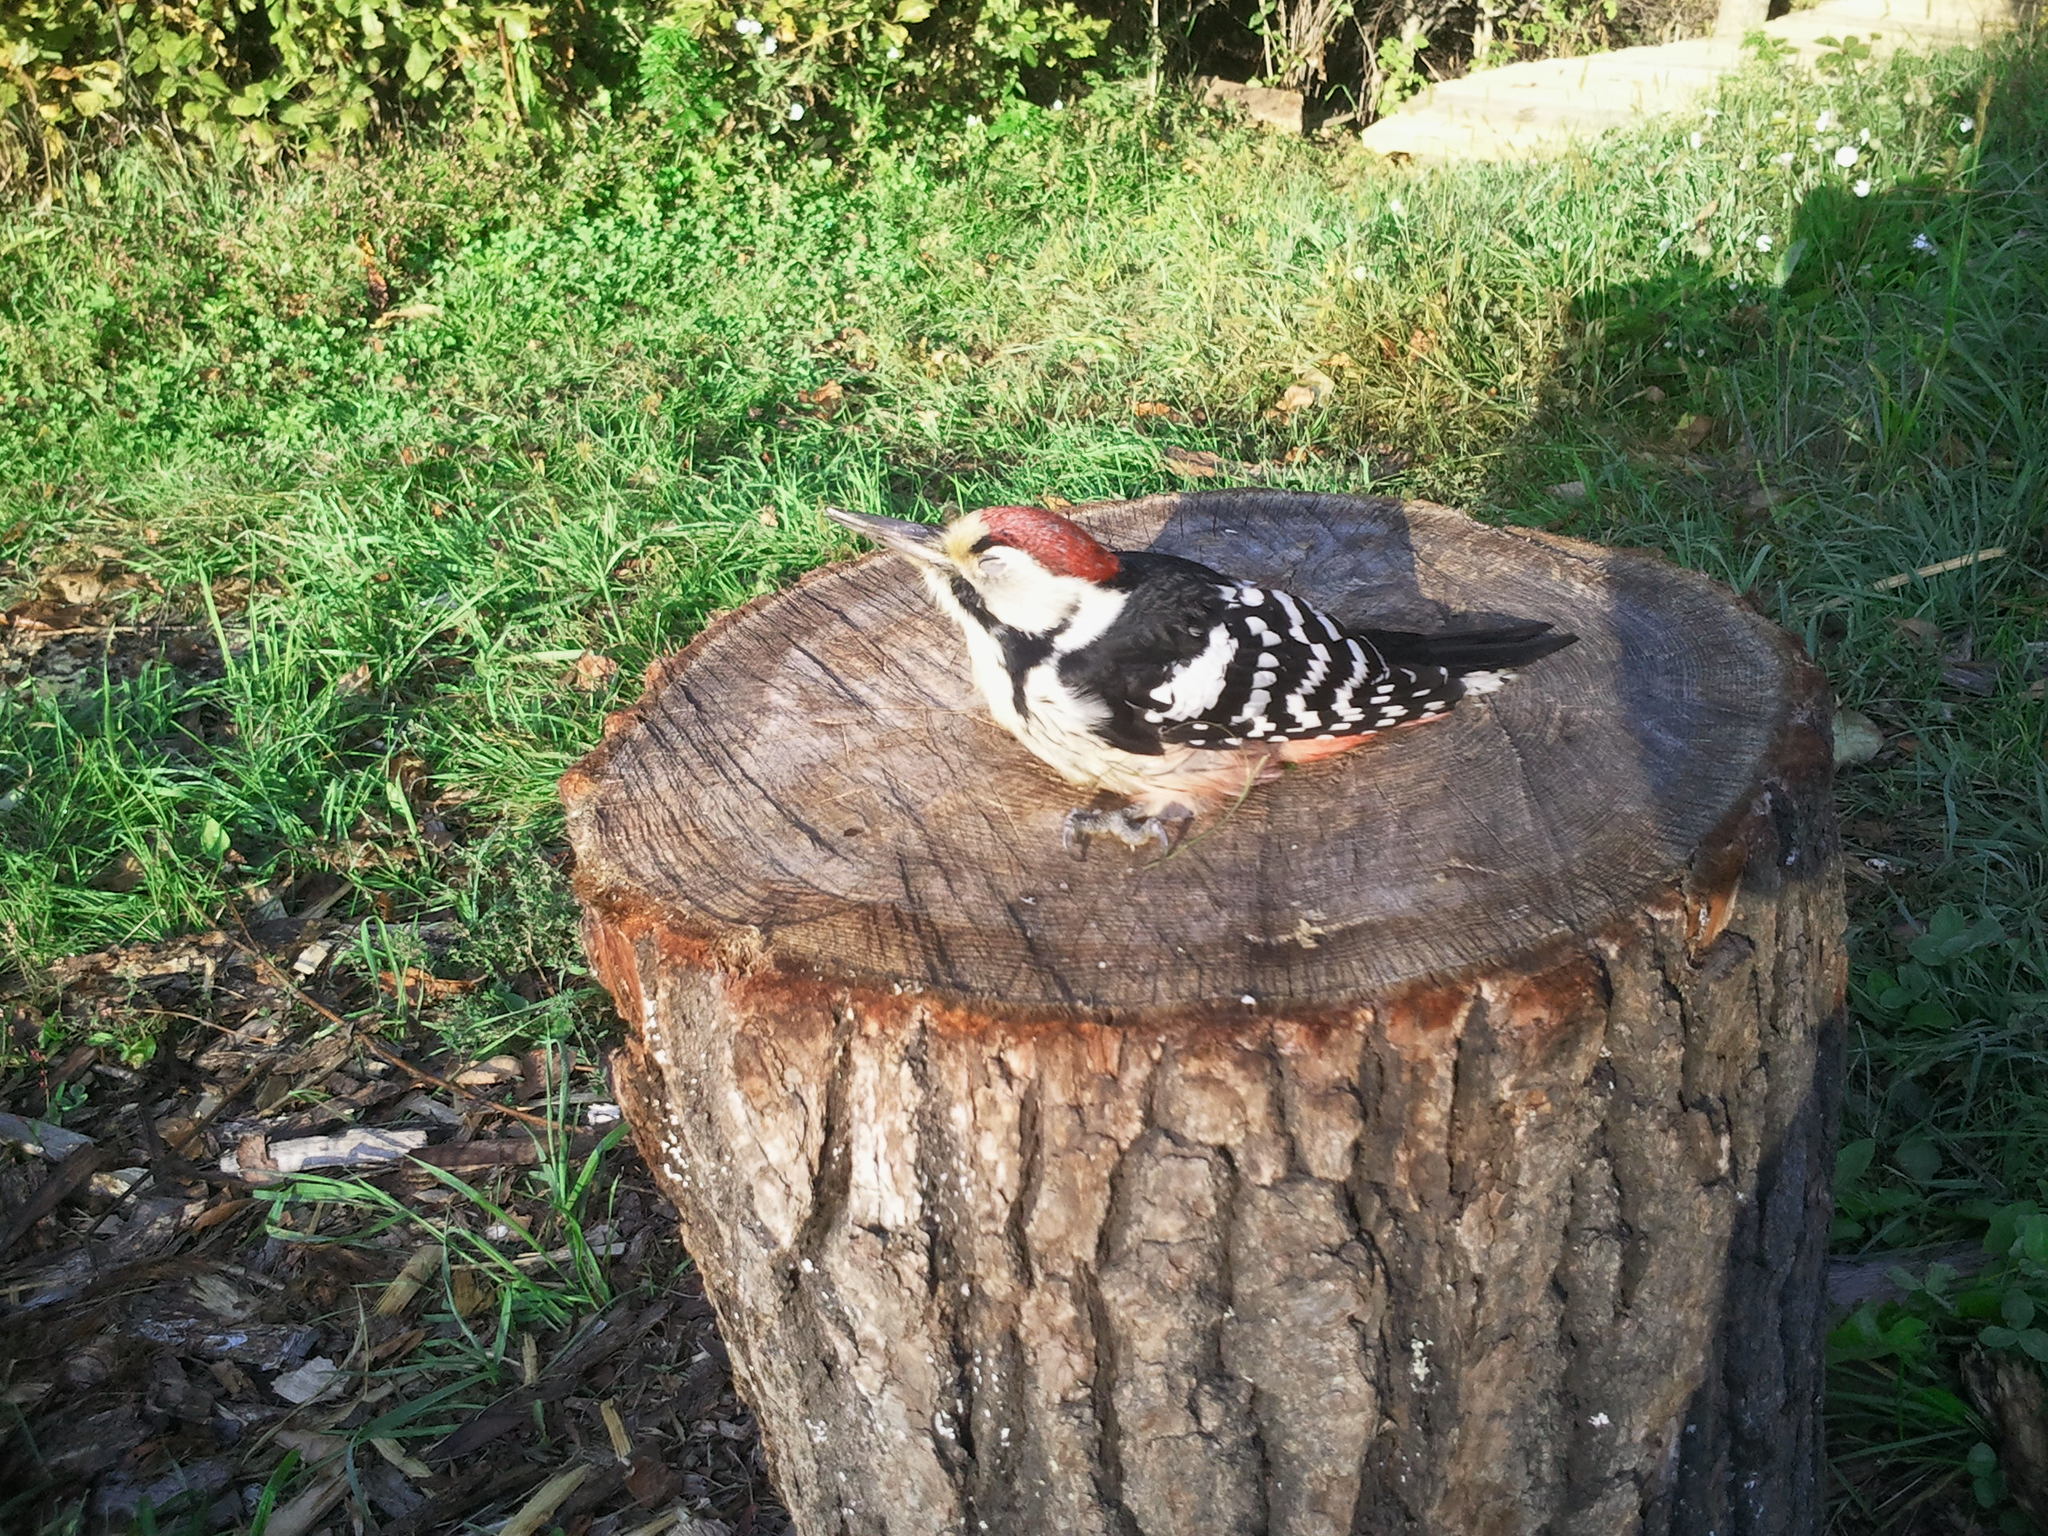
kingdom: Animalia
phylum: Chordata
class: Aves
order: Piciformes
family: Picidae
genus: Dendrocopos
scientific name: Dendrocopos leucotos
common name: White-backed woodpecker
